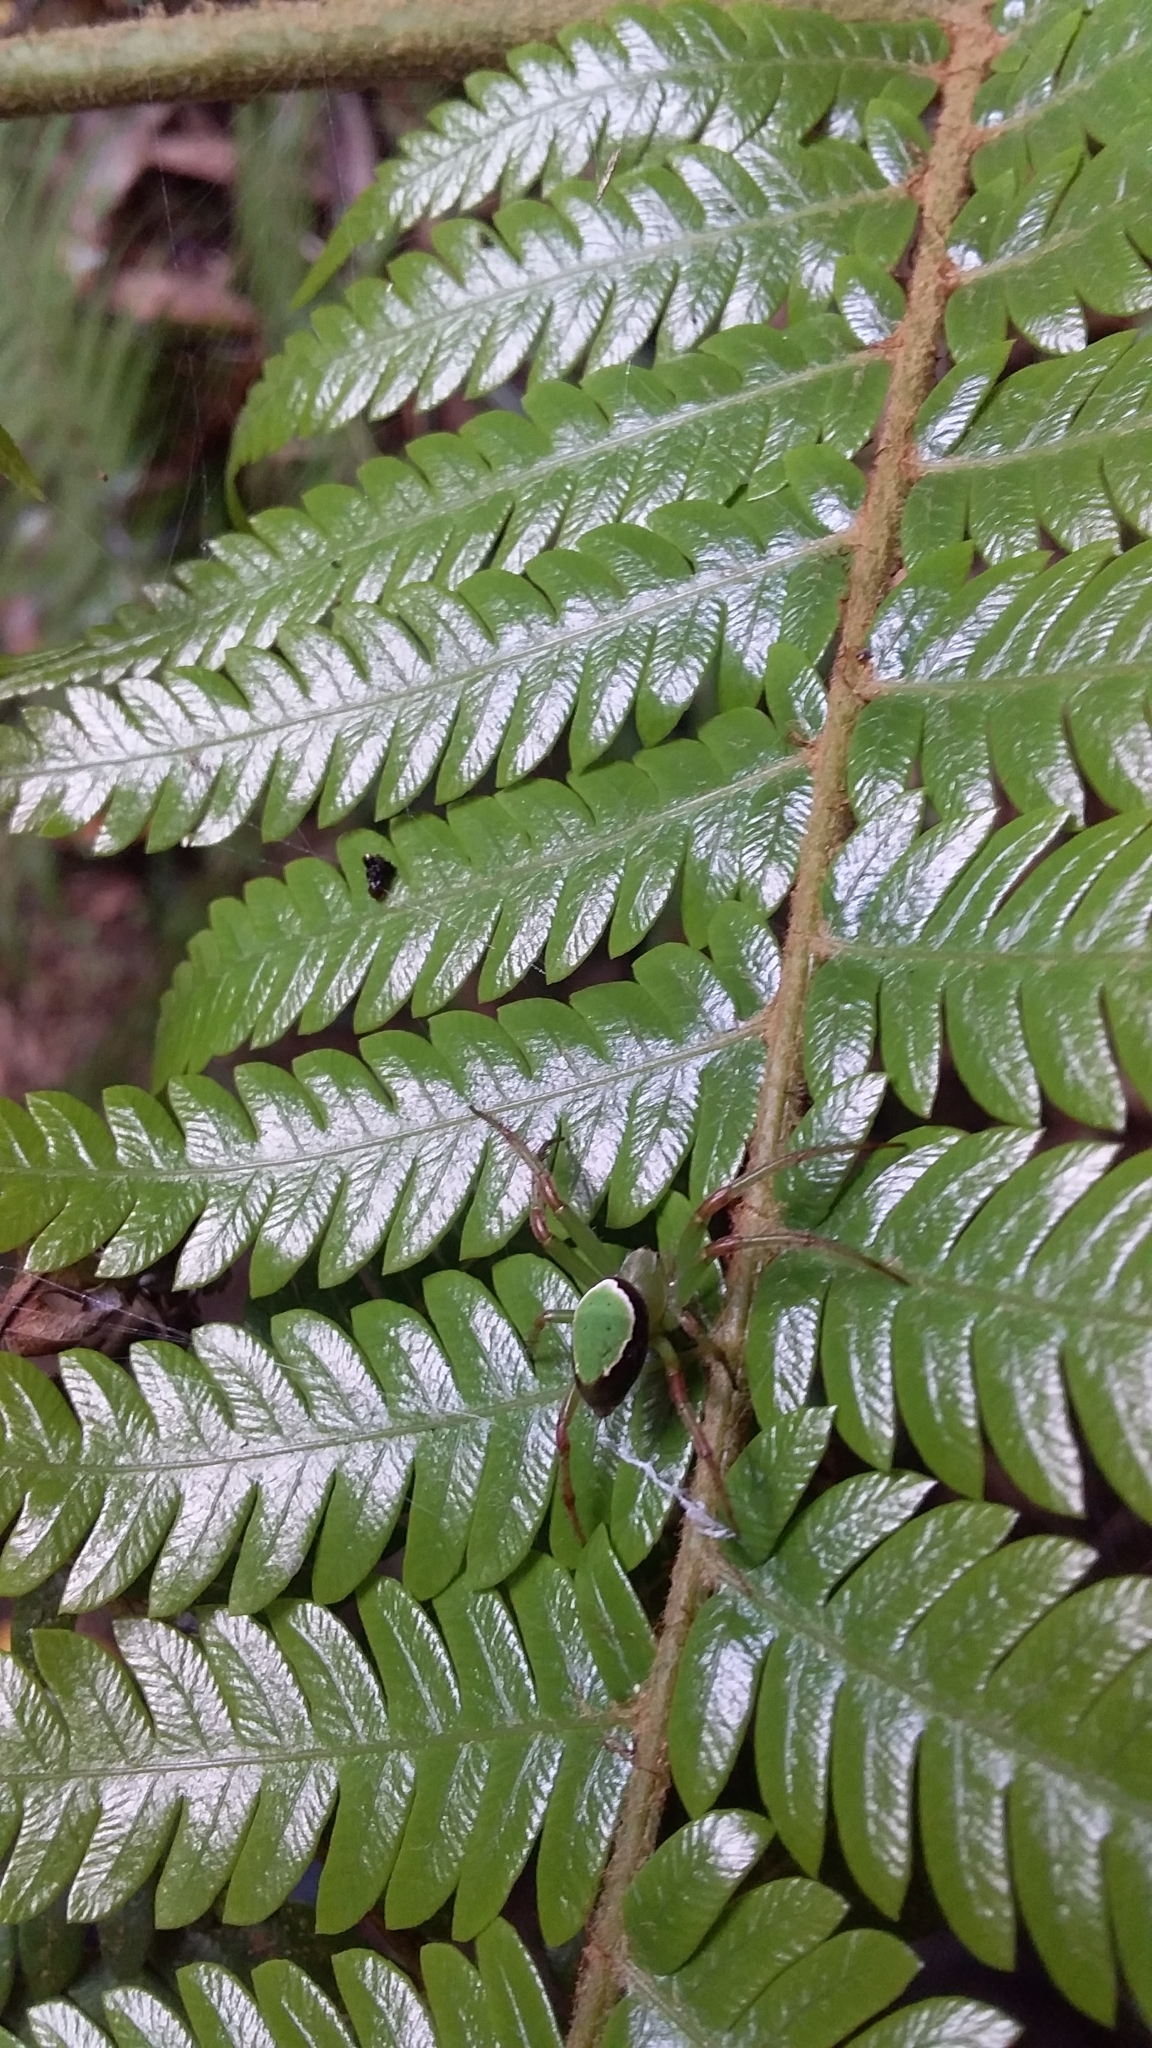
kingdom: Animalia
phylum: Arthropoda
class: Arachnida
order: Araneae
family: Araneidae
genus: Colaranea
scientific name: Colaranea viriditas
